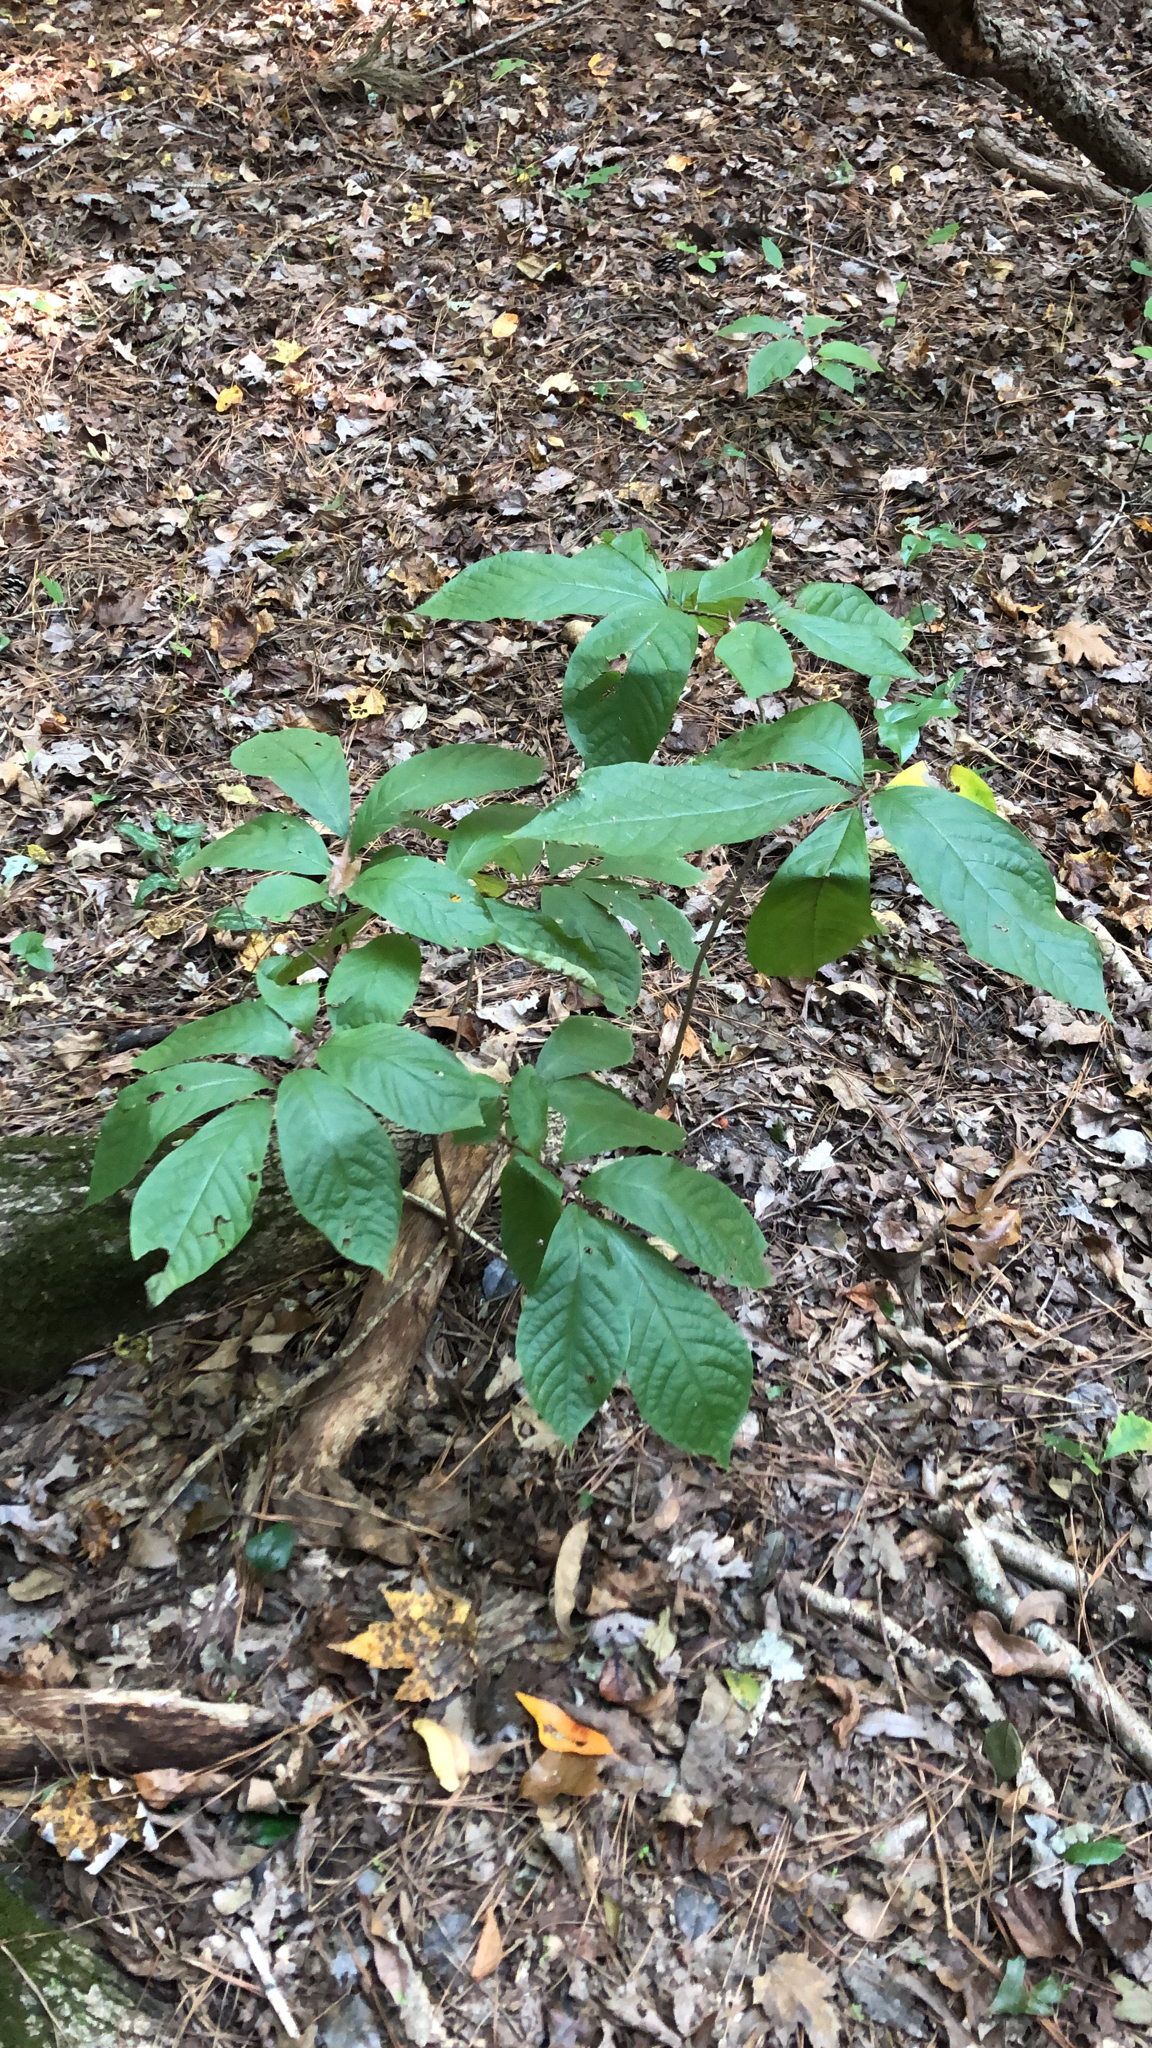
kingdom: Plantae
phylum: Tracheophyta
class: Magnoliopsida
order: Magnoliales
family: Annonaceae
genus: Asimina
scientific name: Asimina triloba
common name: Dog-banana
